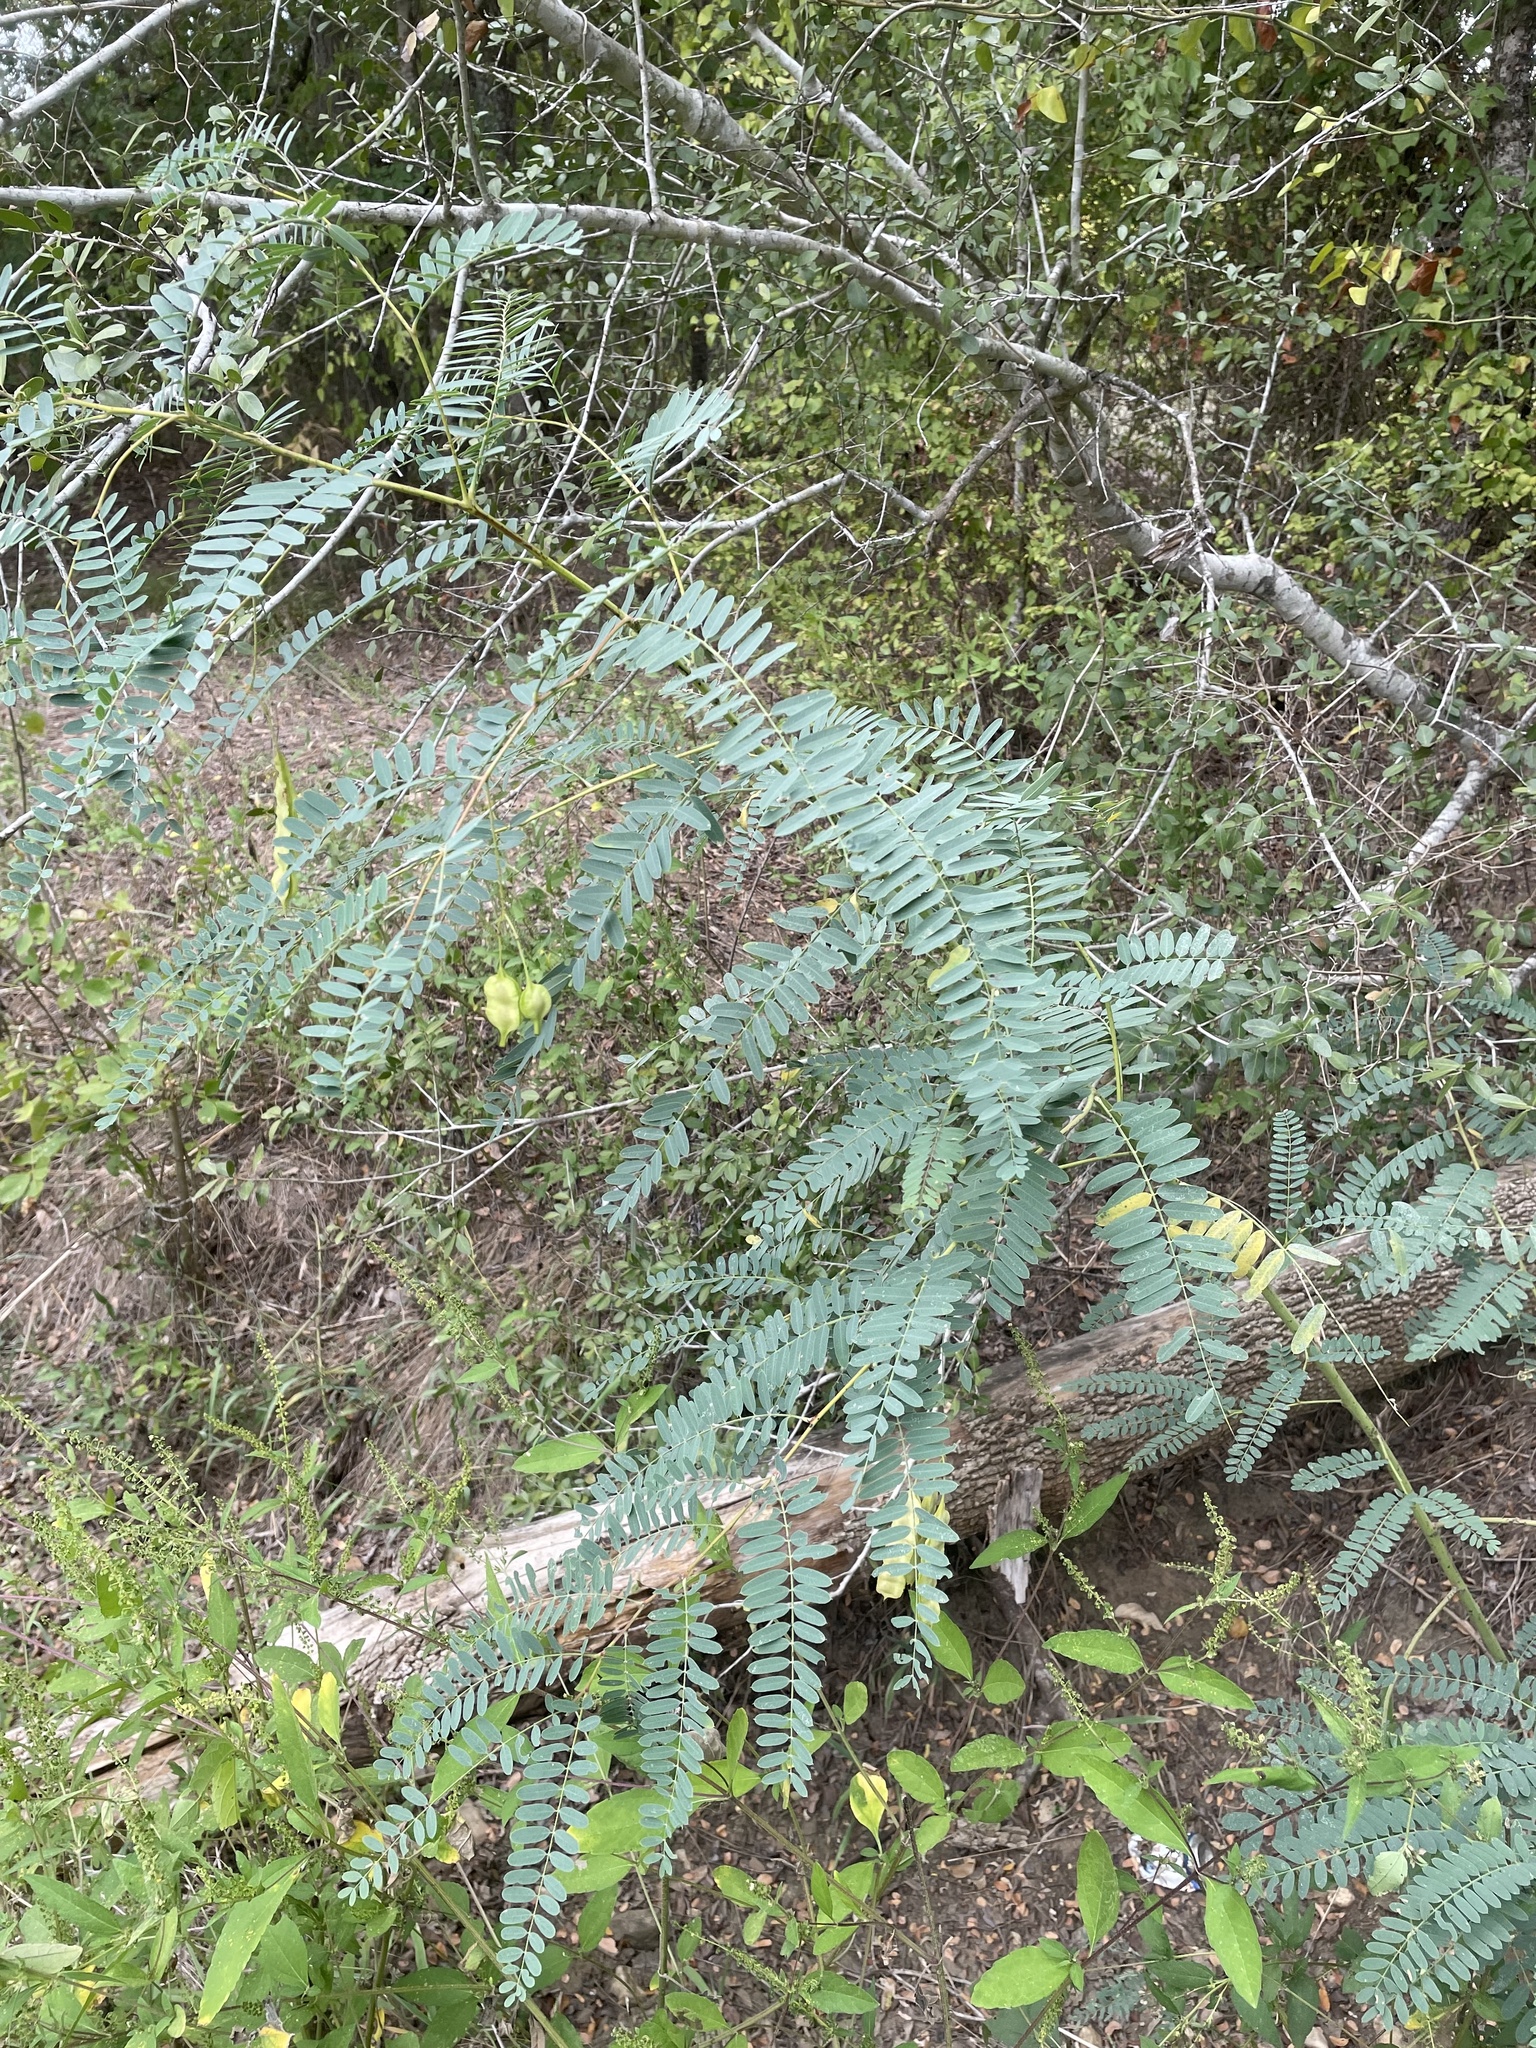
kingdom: Plantae
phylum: Tracheophyta
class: Magnoliopsida
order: Fabales
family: Fabaceae
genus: Sesbania
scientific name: Sesbania drummondii
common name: Poison-bean
